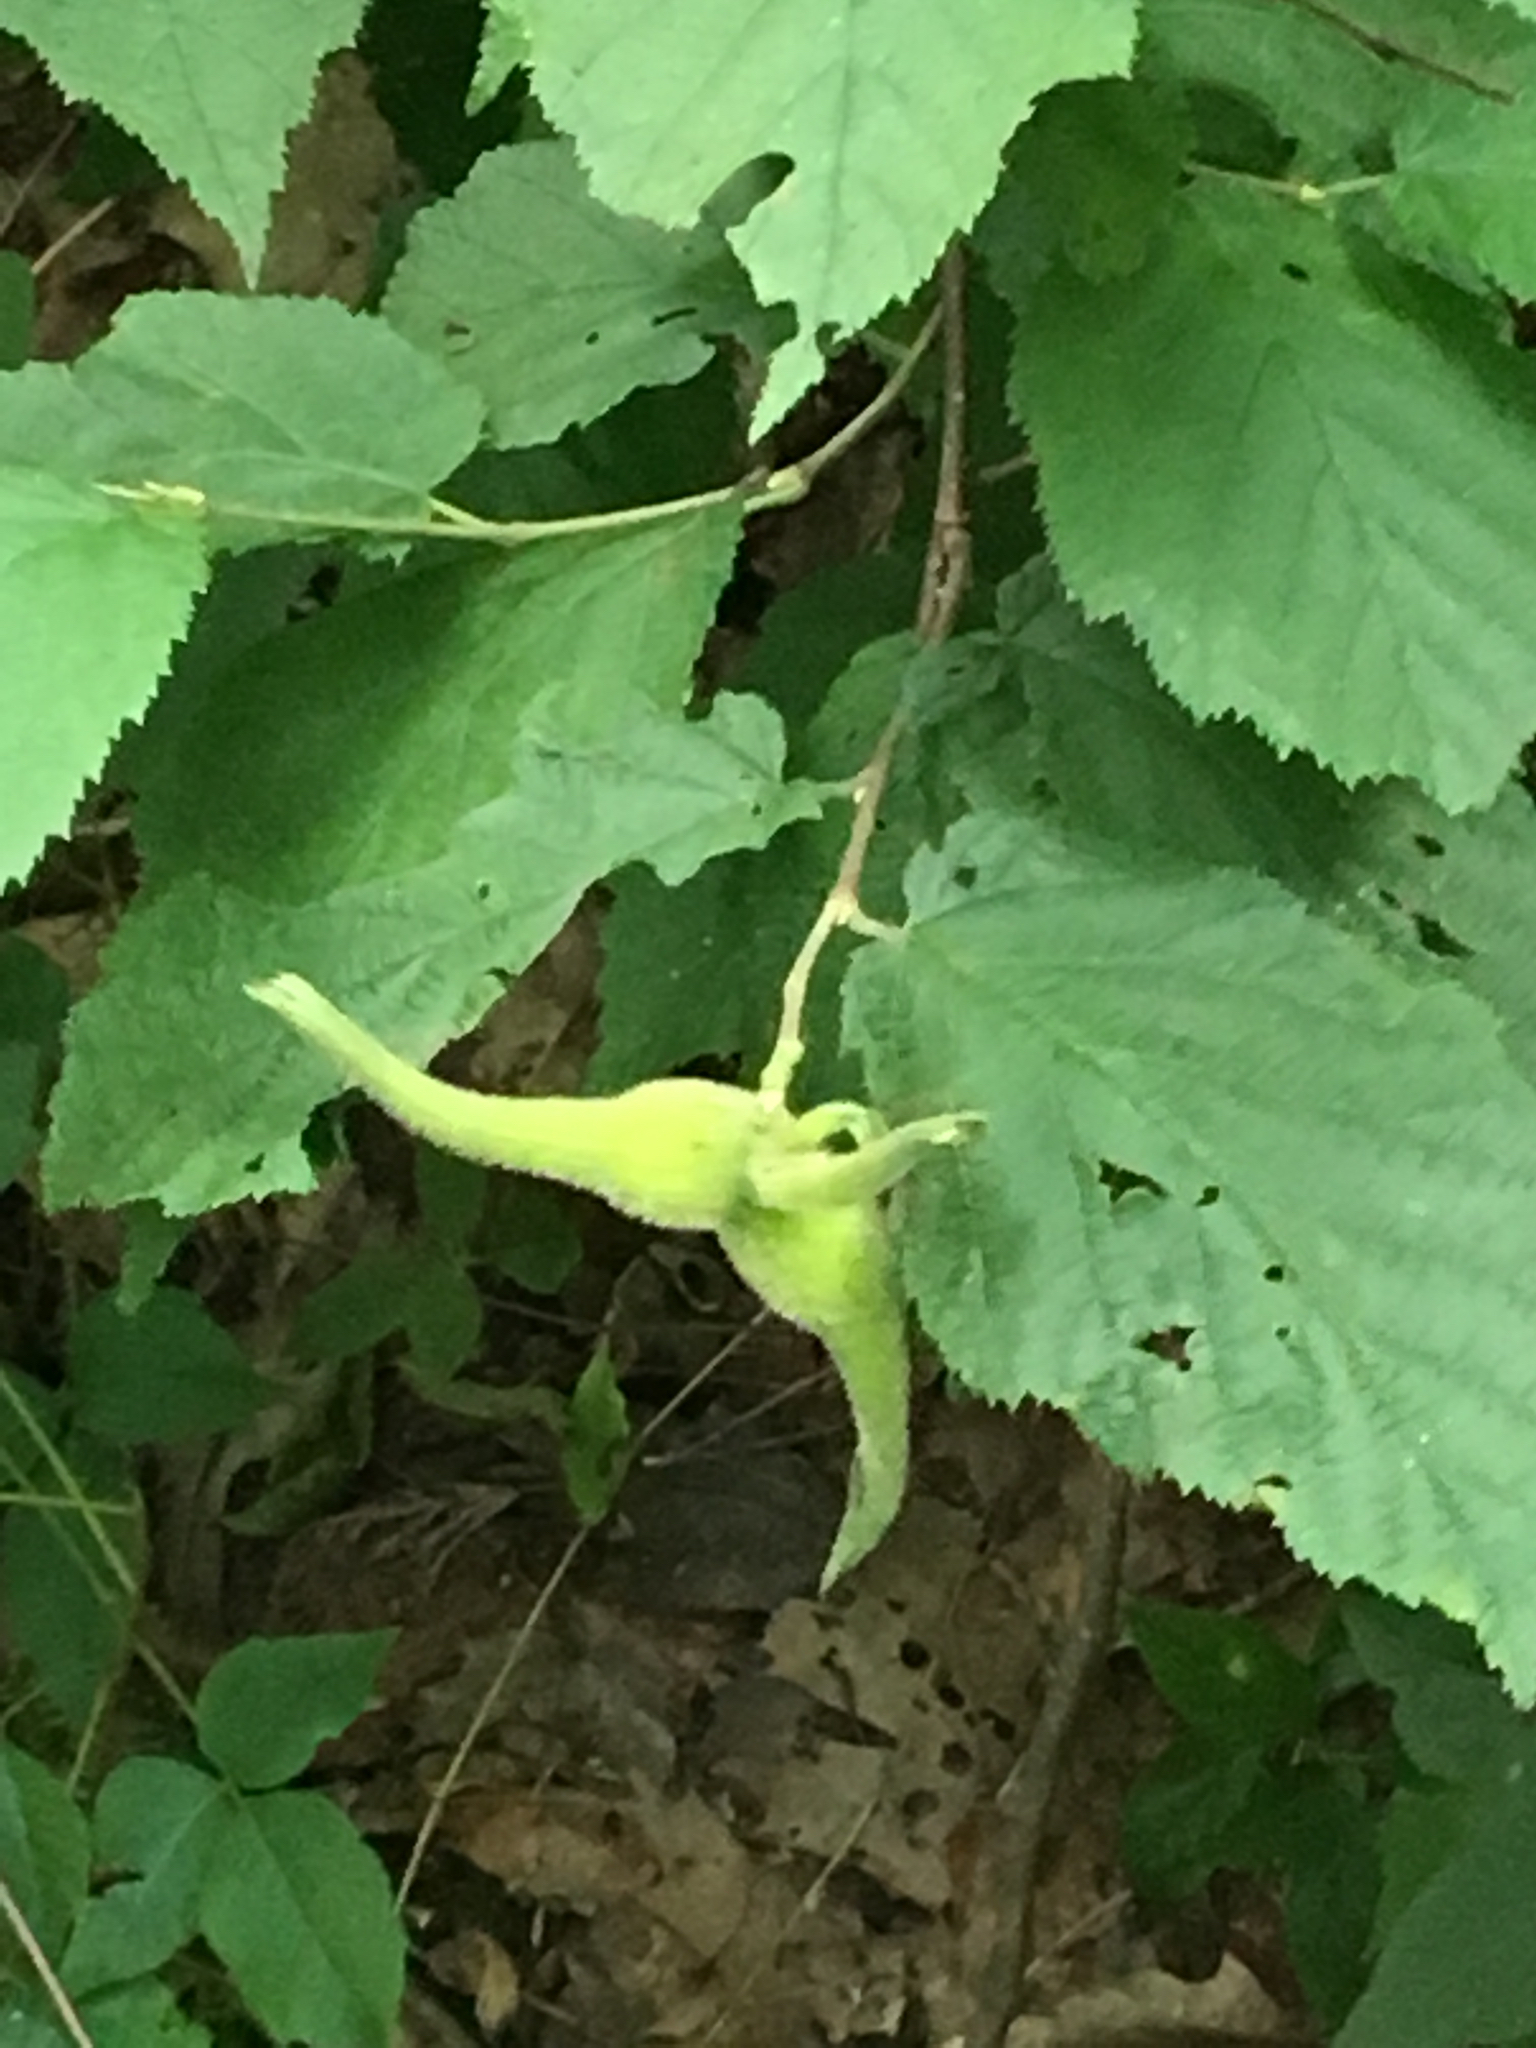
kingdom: Plantae
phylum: Tracheophyta
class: Magnoliopsida
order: Fagales
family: Betulaceae
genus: Corylus
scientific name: Corylus cornuta
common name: Beaked hazel
